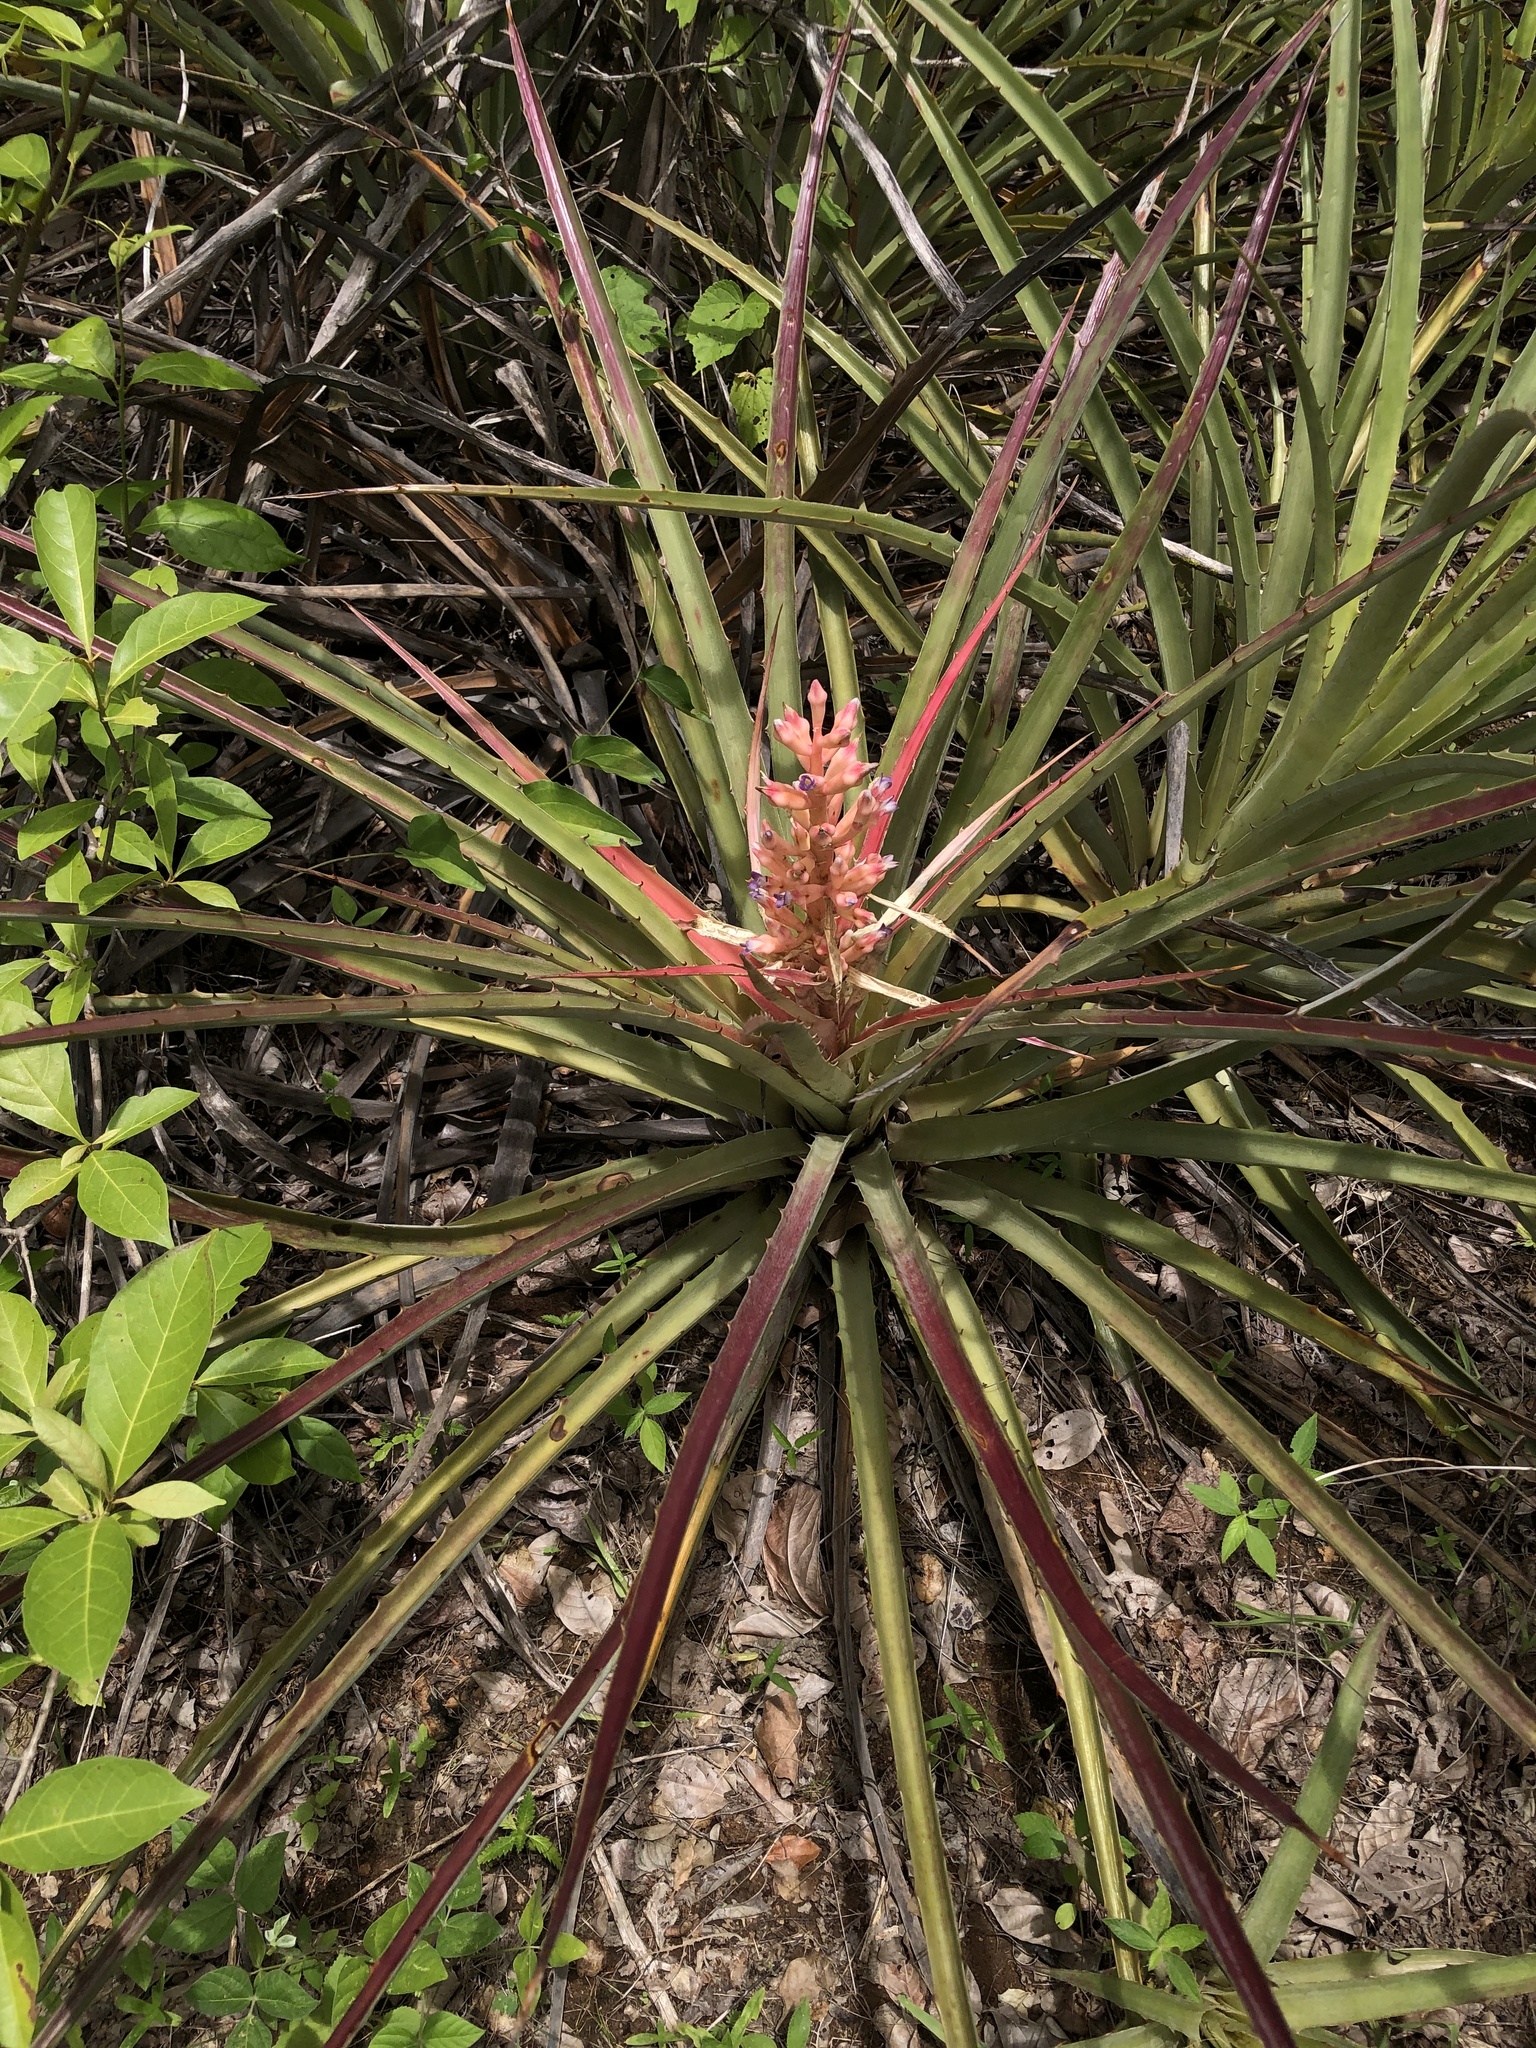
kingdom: Plantae
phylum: Tracheophyta
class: Liliopsida
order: Poales
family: Bromeliaceae
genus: Bromelia
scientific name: Bromelia arenaria
